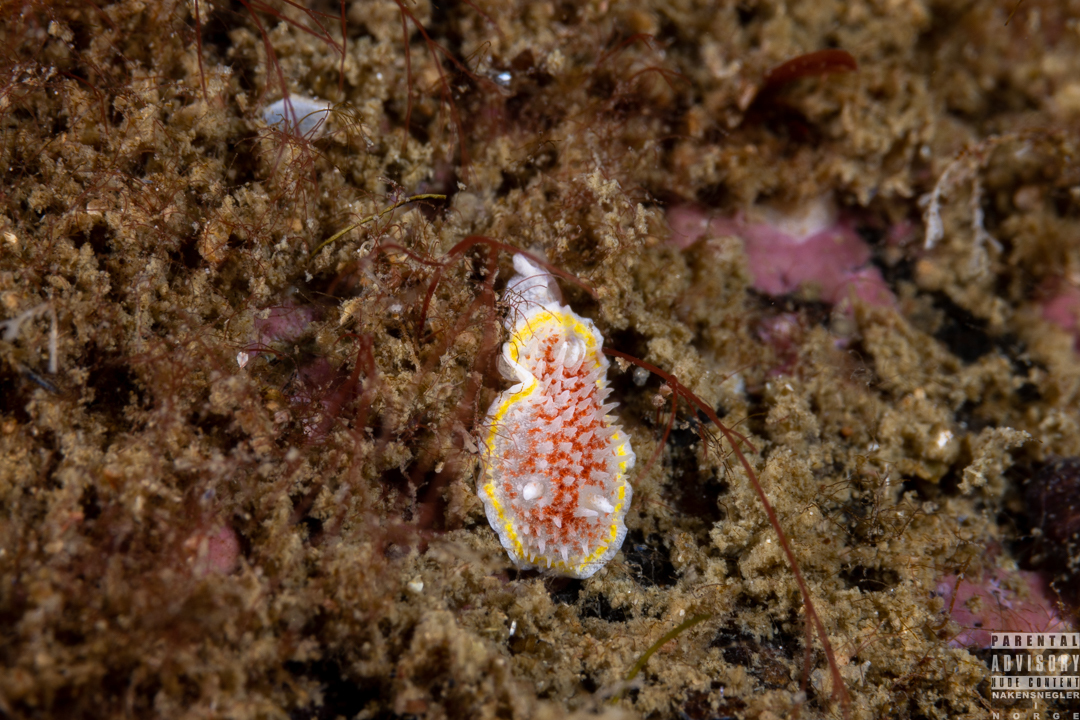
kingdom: Animalia
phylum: Mollusca
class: Gastropoda
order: Nudibranchia
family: Calycidorididae
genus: Diaphorodoris
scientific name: Diaphorodoris luteocincta
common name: Fried egg nudibranch
